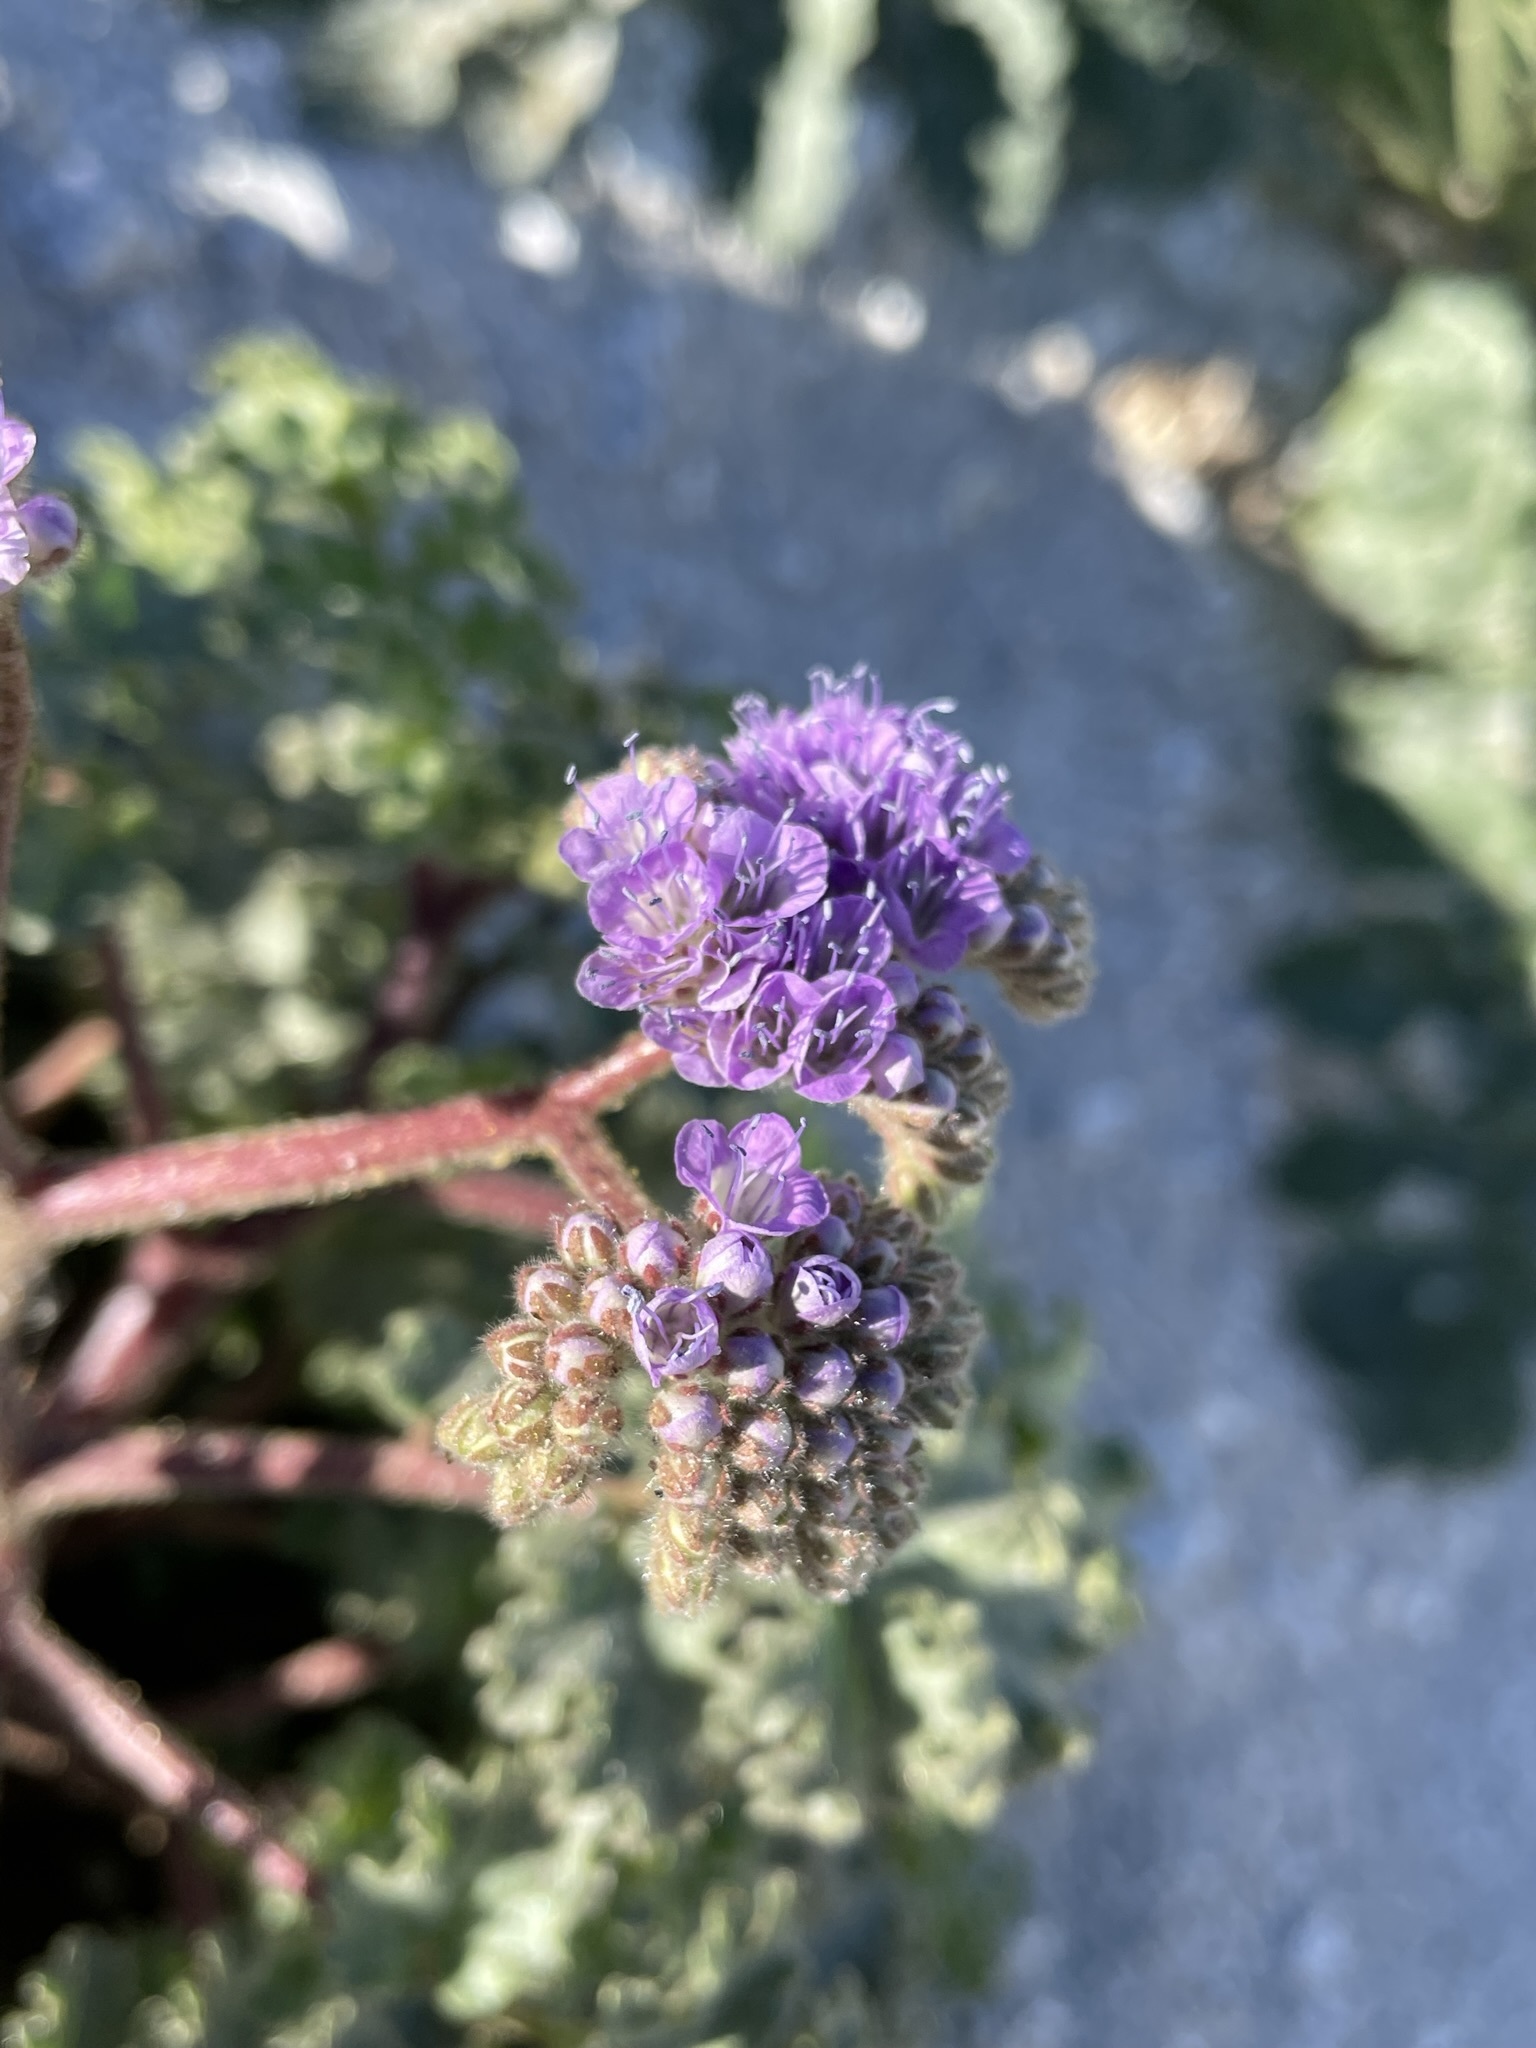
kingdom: Plantae
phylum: Tracheophyta
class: Magnoliopsida
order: Boraginales
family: Hydrophyllaceae
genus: Phacelia
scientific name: Phacelia pedicellata
